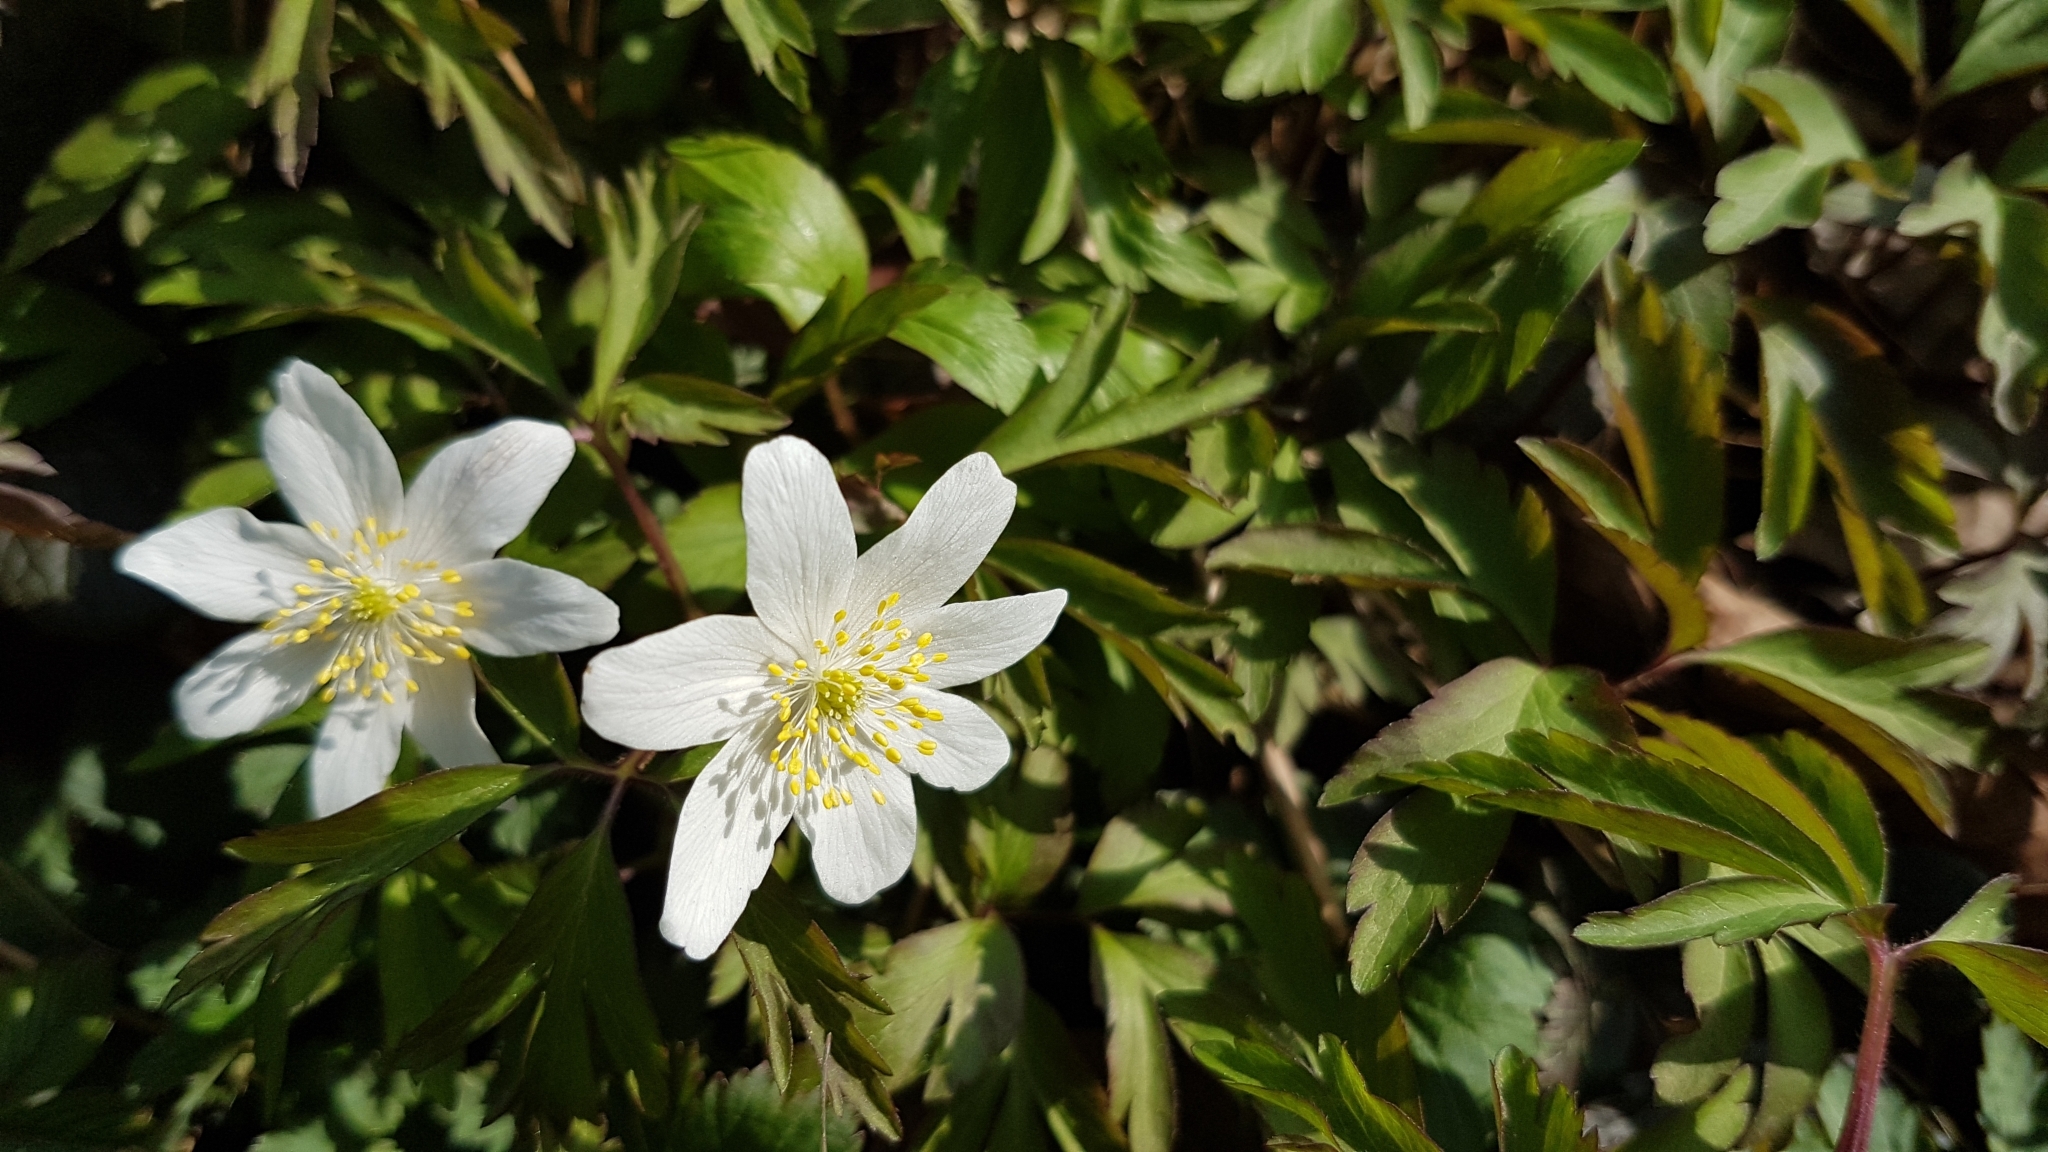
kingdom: Plantae
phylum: Tracheophyta
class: Magnoliopsida
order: Ranunculales
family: Ranunculaceae
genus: Anemone
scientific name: Anemone nemorosa
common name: Wood anemone
